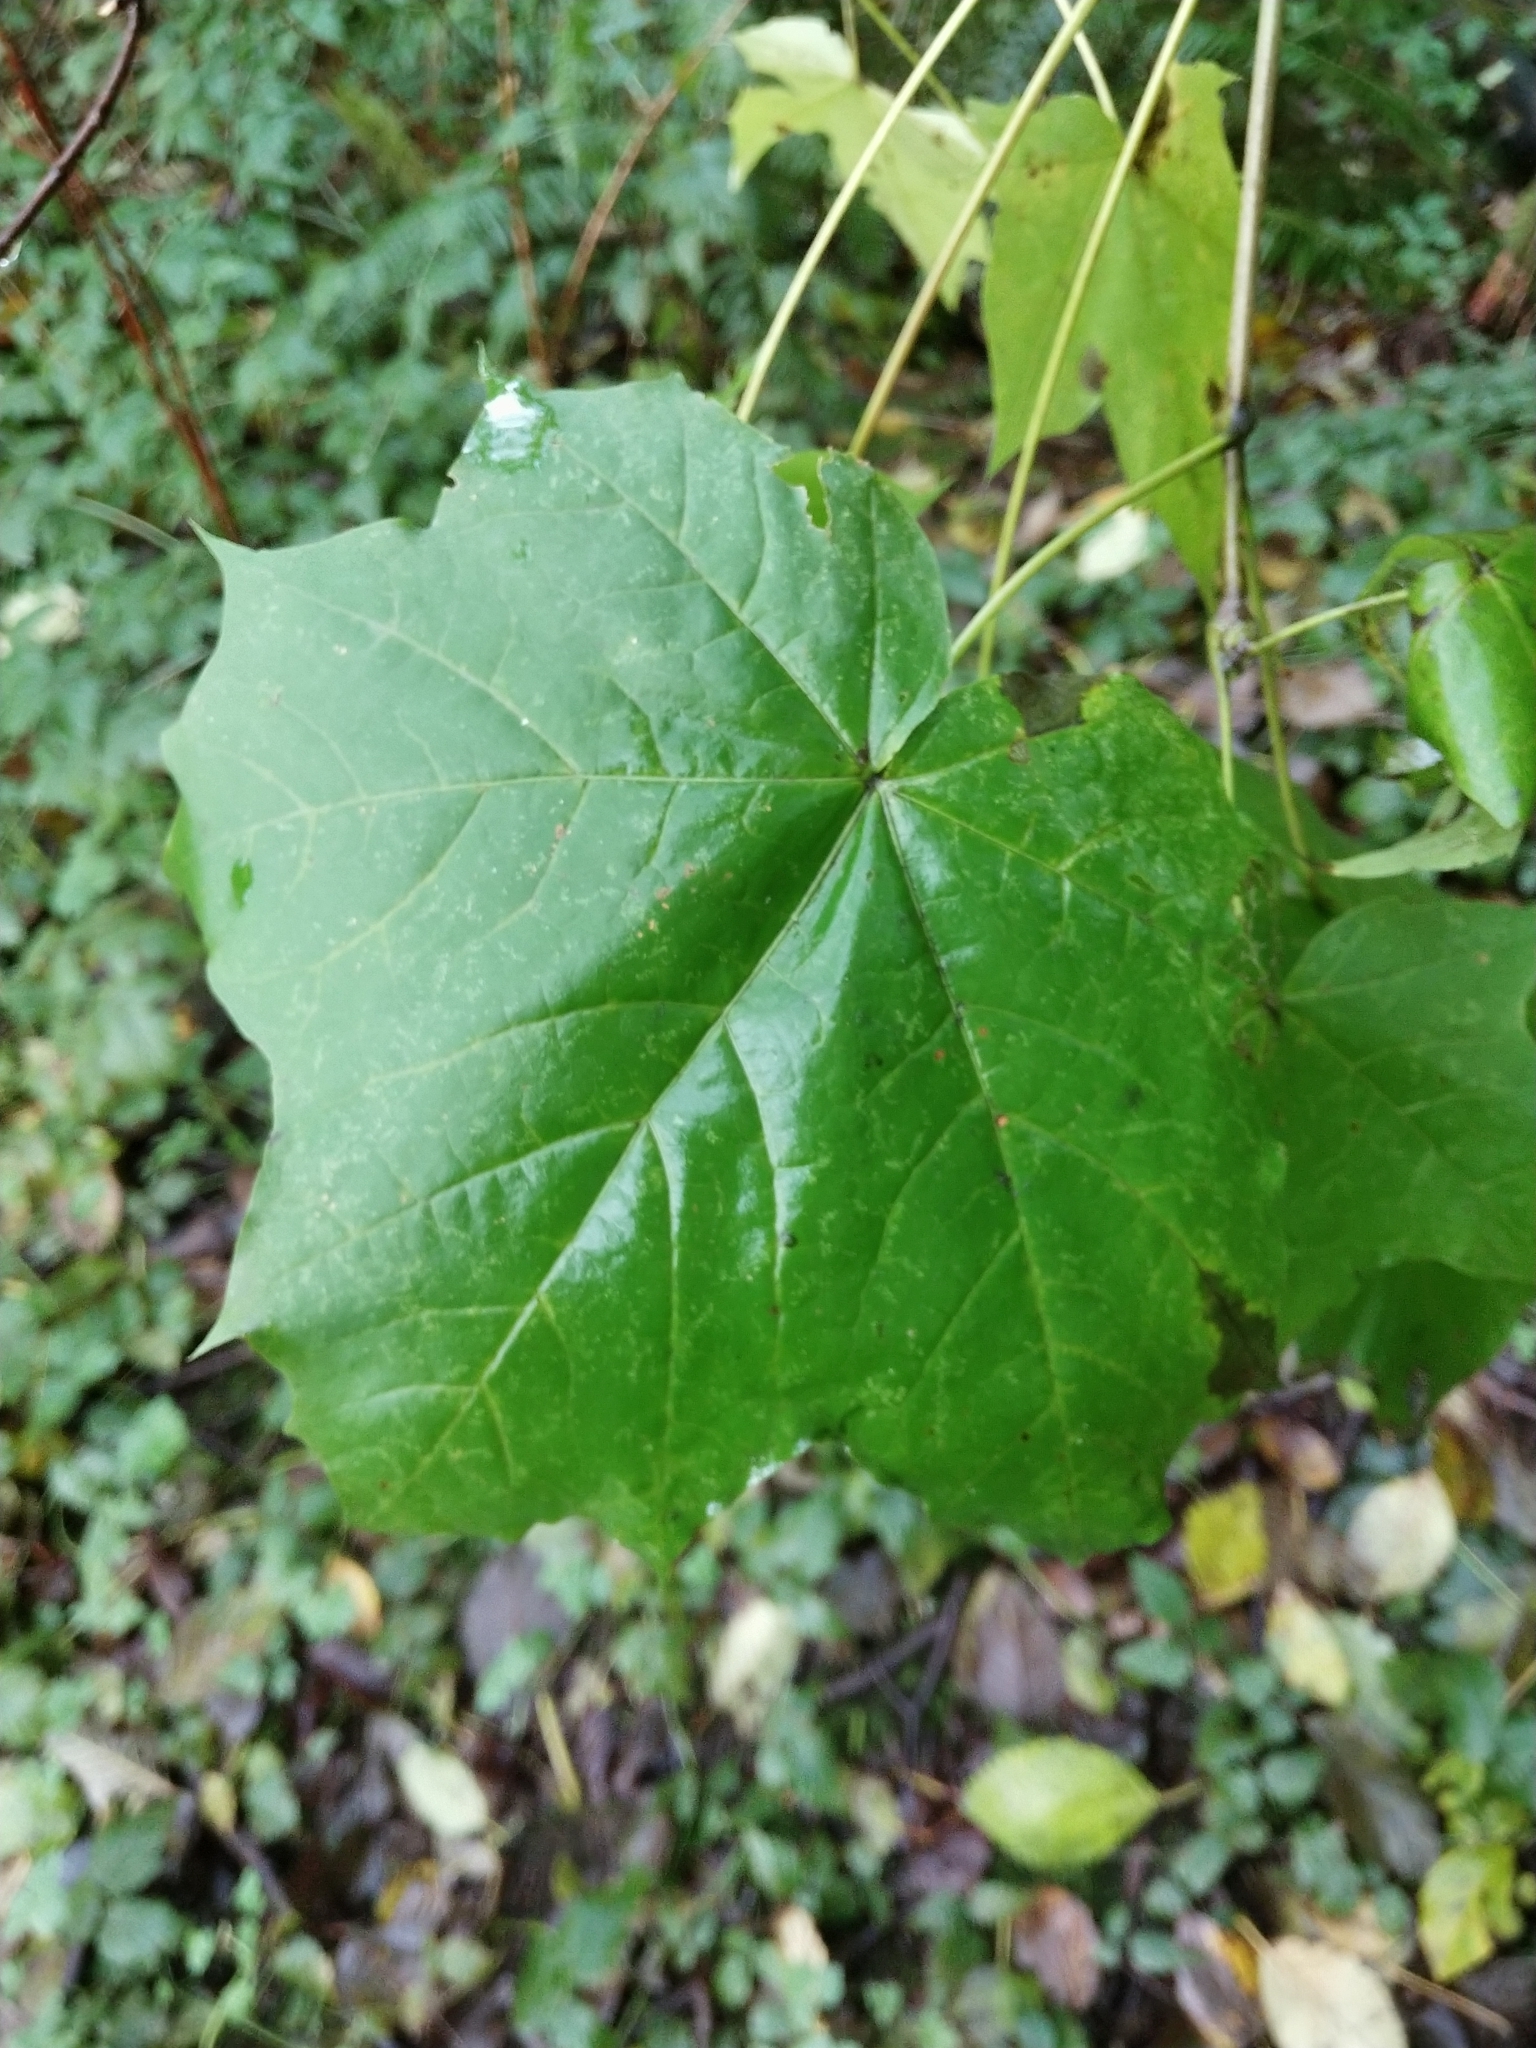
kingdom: Plantae
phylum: Tracheophyta
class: Magnoliopsida
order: Sapindales
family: Sapindaceae
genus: Acer
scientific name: Acer platanoides
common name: Norway maple
